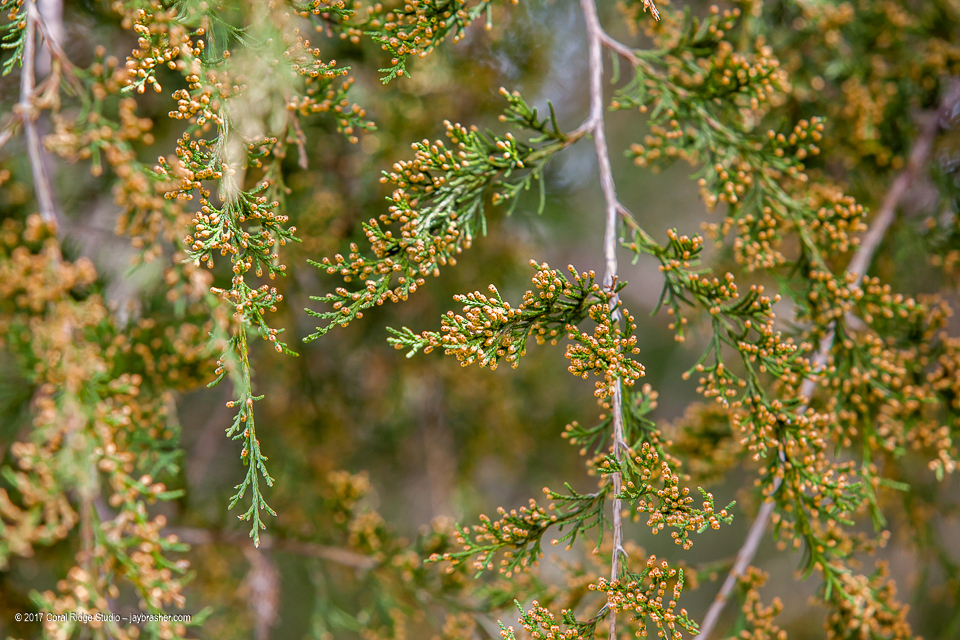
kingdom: Plantae
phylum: Tracheophyta
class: Pinopsida
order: Pinales
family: Cupressaceae
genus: Juniperus
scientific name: Juniperus virginiana
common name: Red juniper
